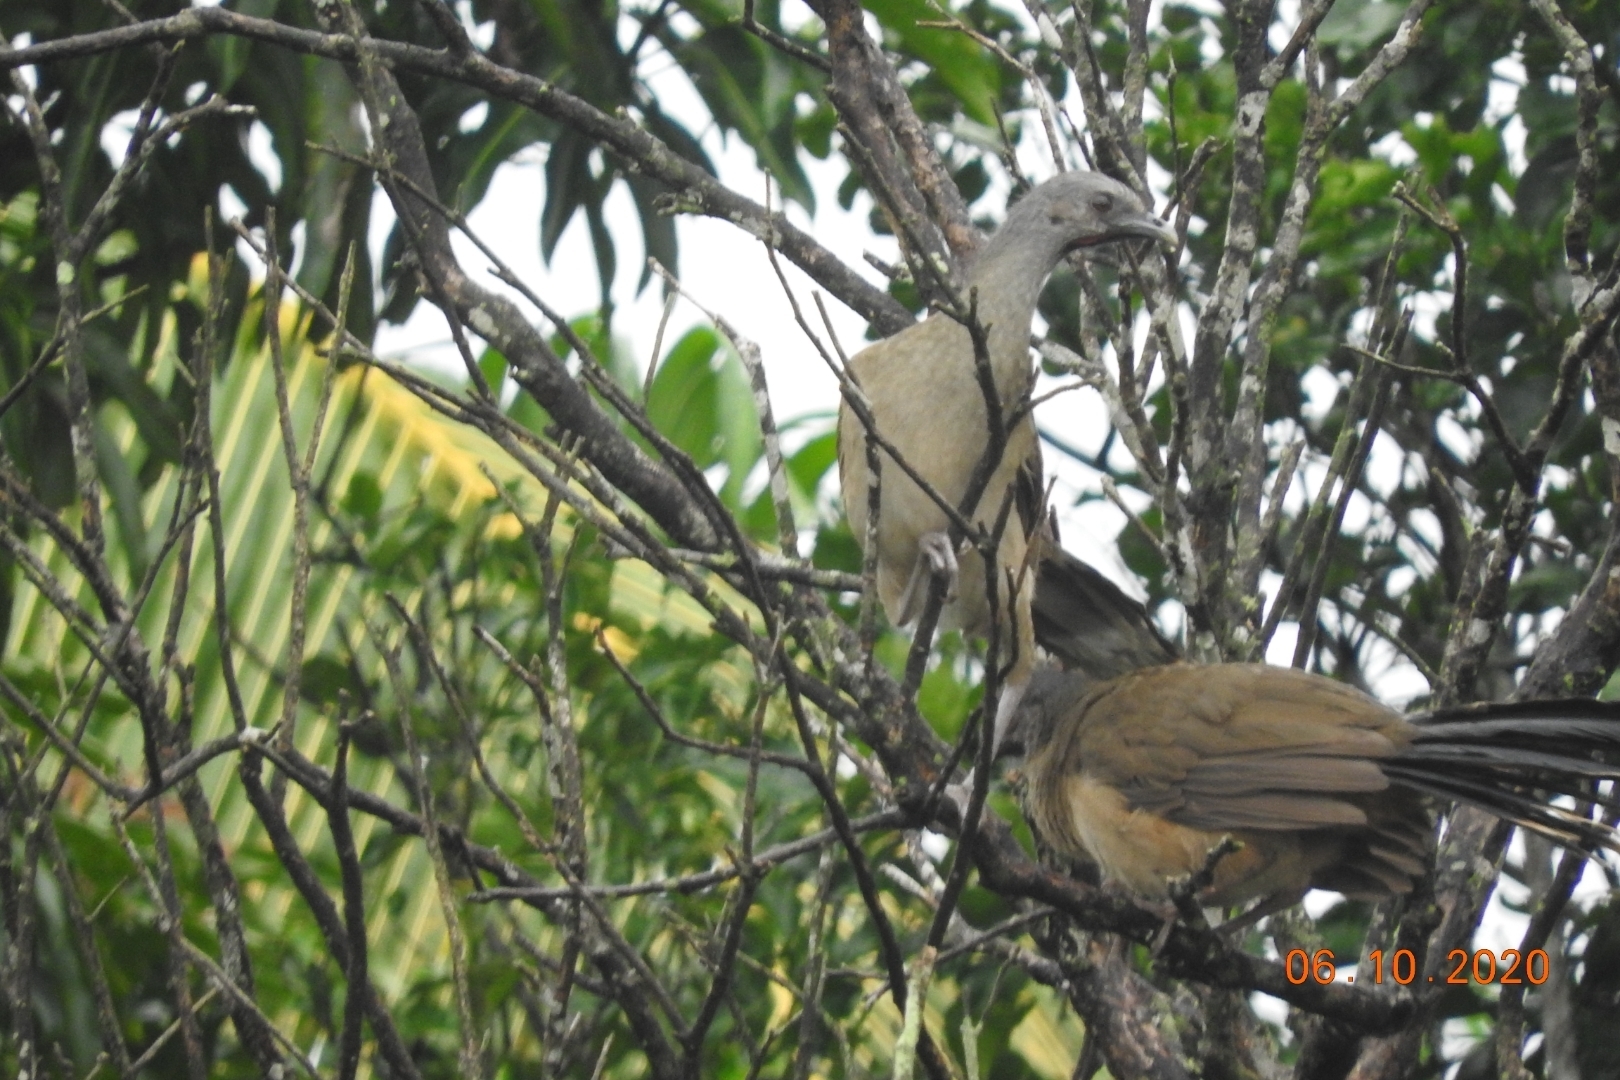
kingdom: Animalia
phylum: Chordata
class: Aves
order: Galliformes
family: Cracidae
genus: Ortalis
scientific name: Ortalis vetula
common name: Plain chachalaca
